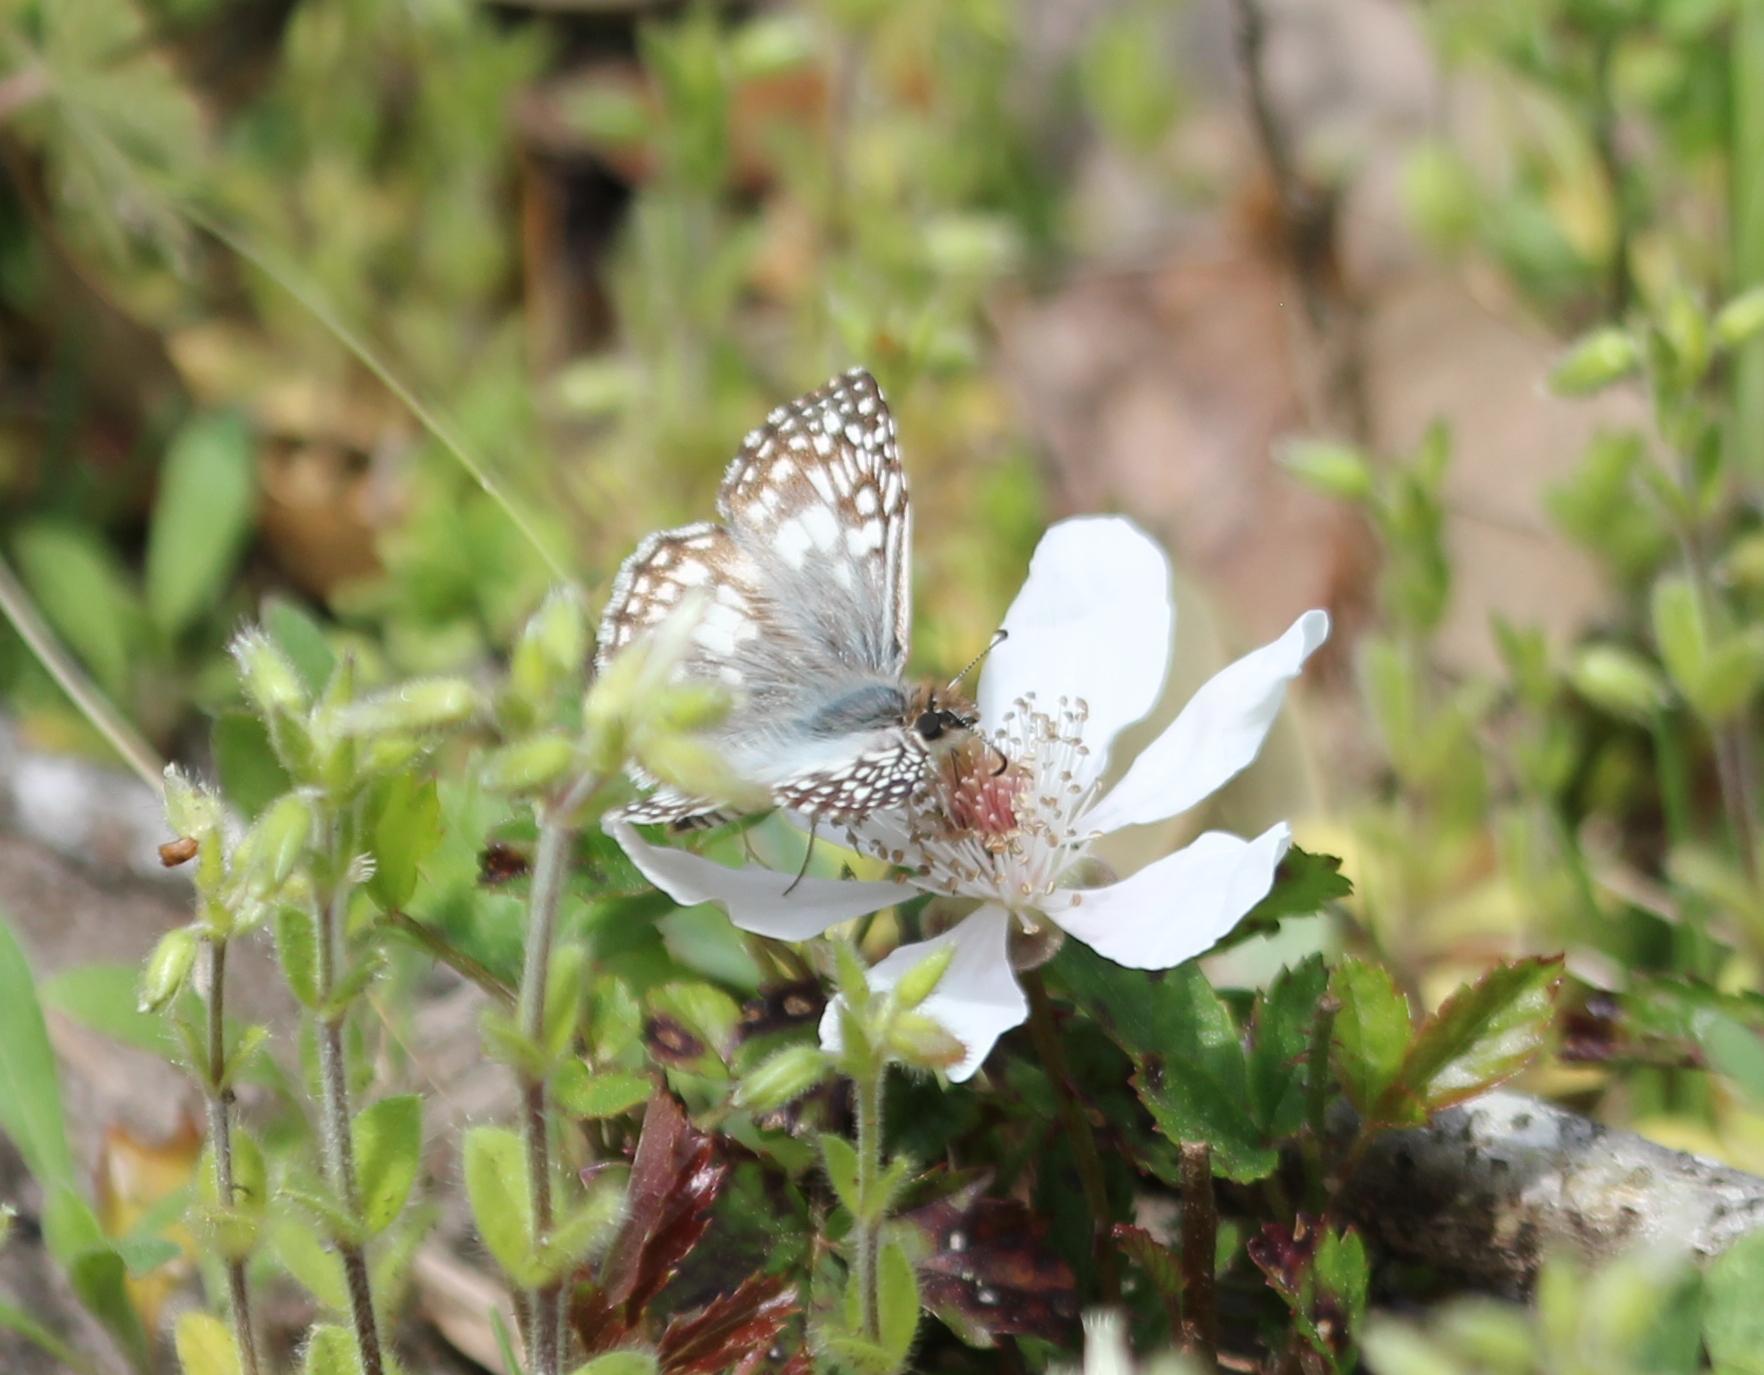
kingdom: Animalia
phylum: Arthropoda
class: Insecta
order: Lepidoptera
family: Hesperiidae
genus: Pyrgus
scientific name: Pyrgus oileus
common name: Tropical checkered-skipper
